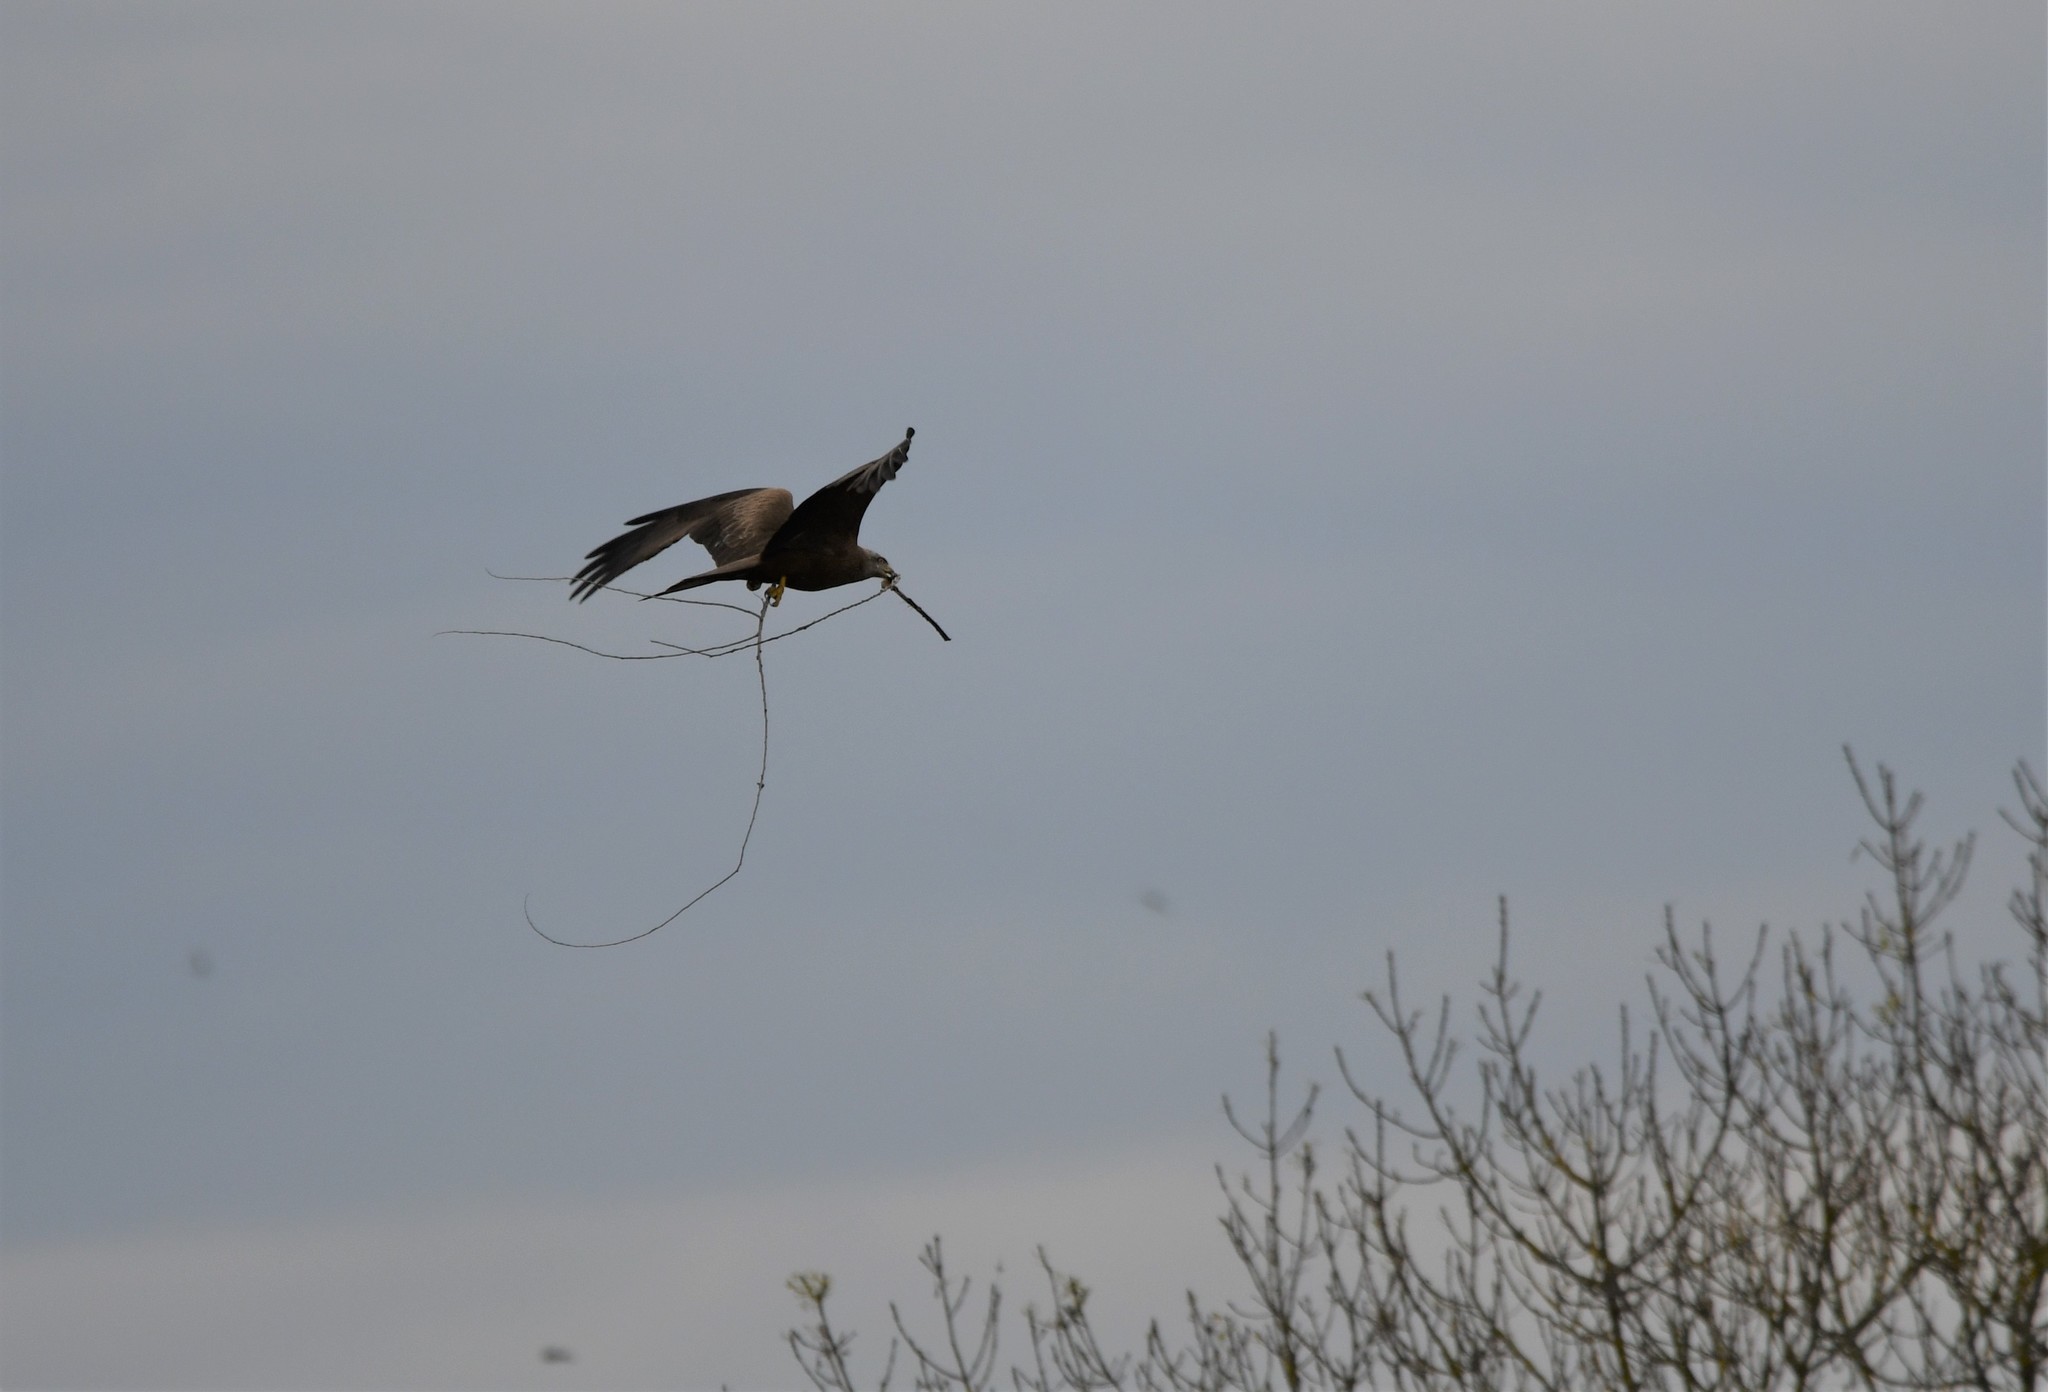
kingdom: Animalia
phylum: Chordata
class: Aves
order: Accipitriformes
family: Accipitridae
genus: Milvus
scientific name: Milvus migrans
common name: Black kite
